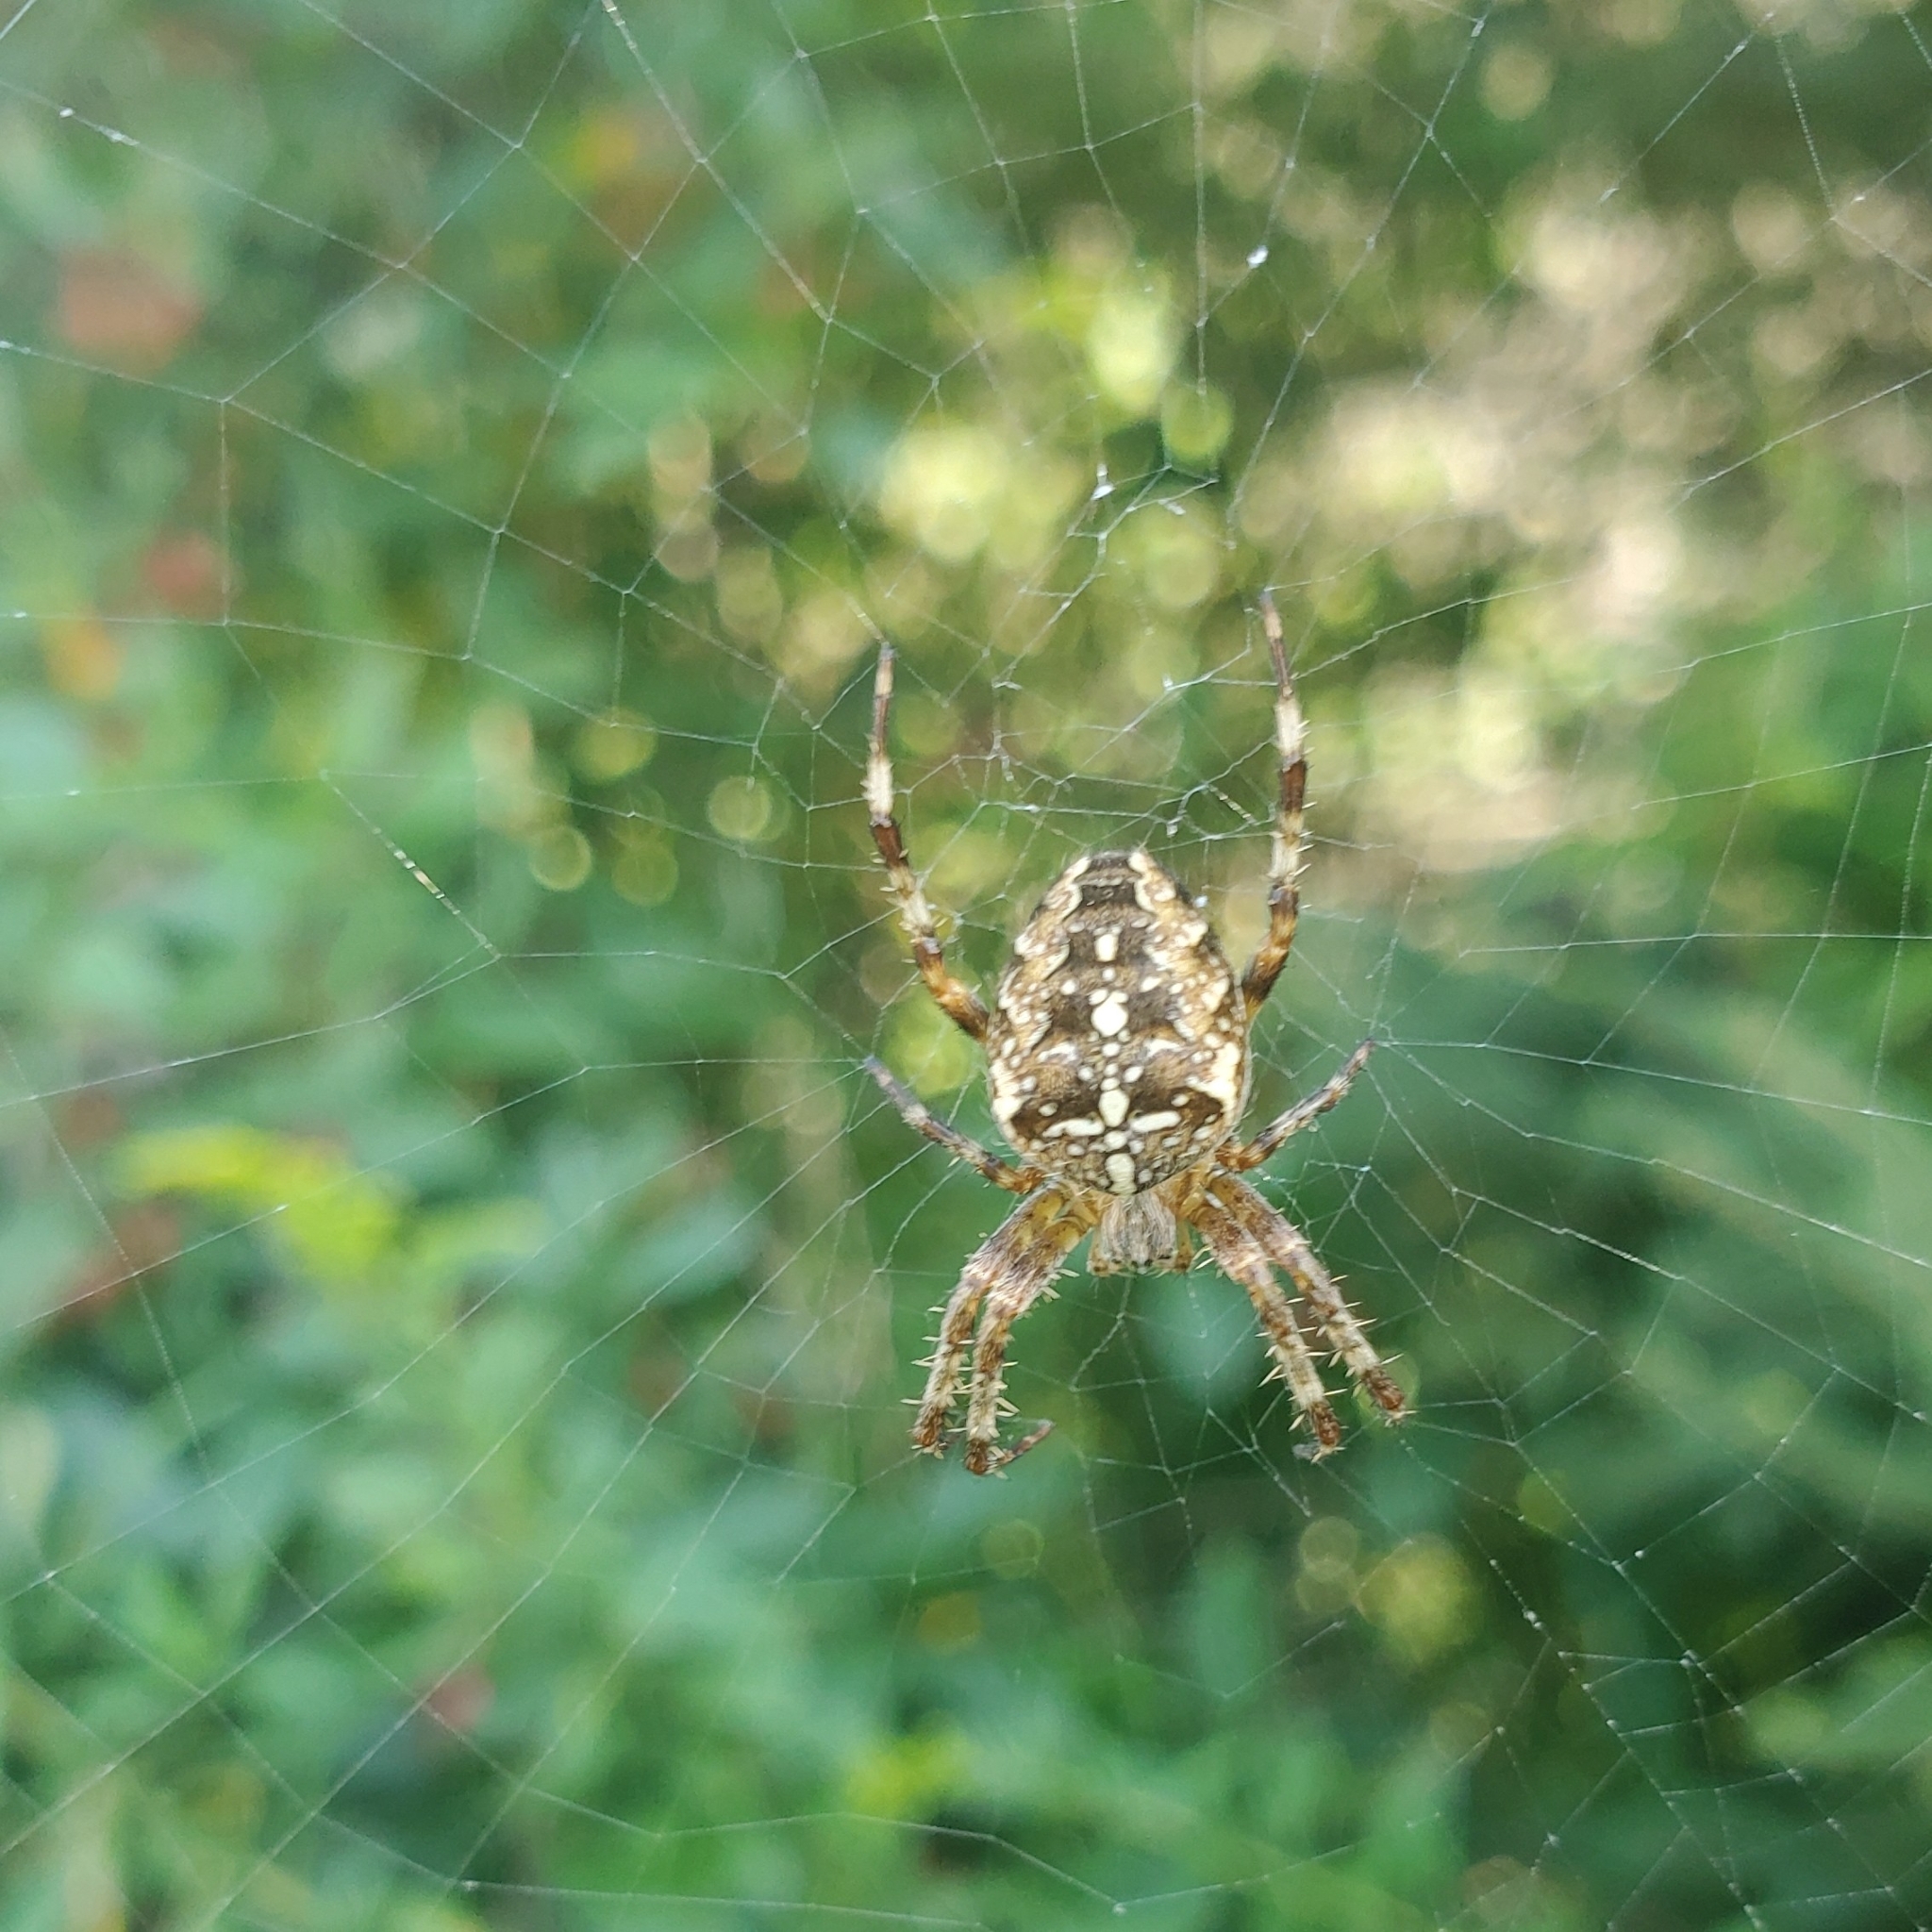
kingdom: Animalia
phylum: Arthropoda
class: Arachnida
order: Araneae
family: Araneidae
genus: Araneus
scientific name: Araneus diadematus
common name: Cross orbweaver
